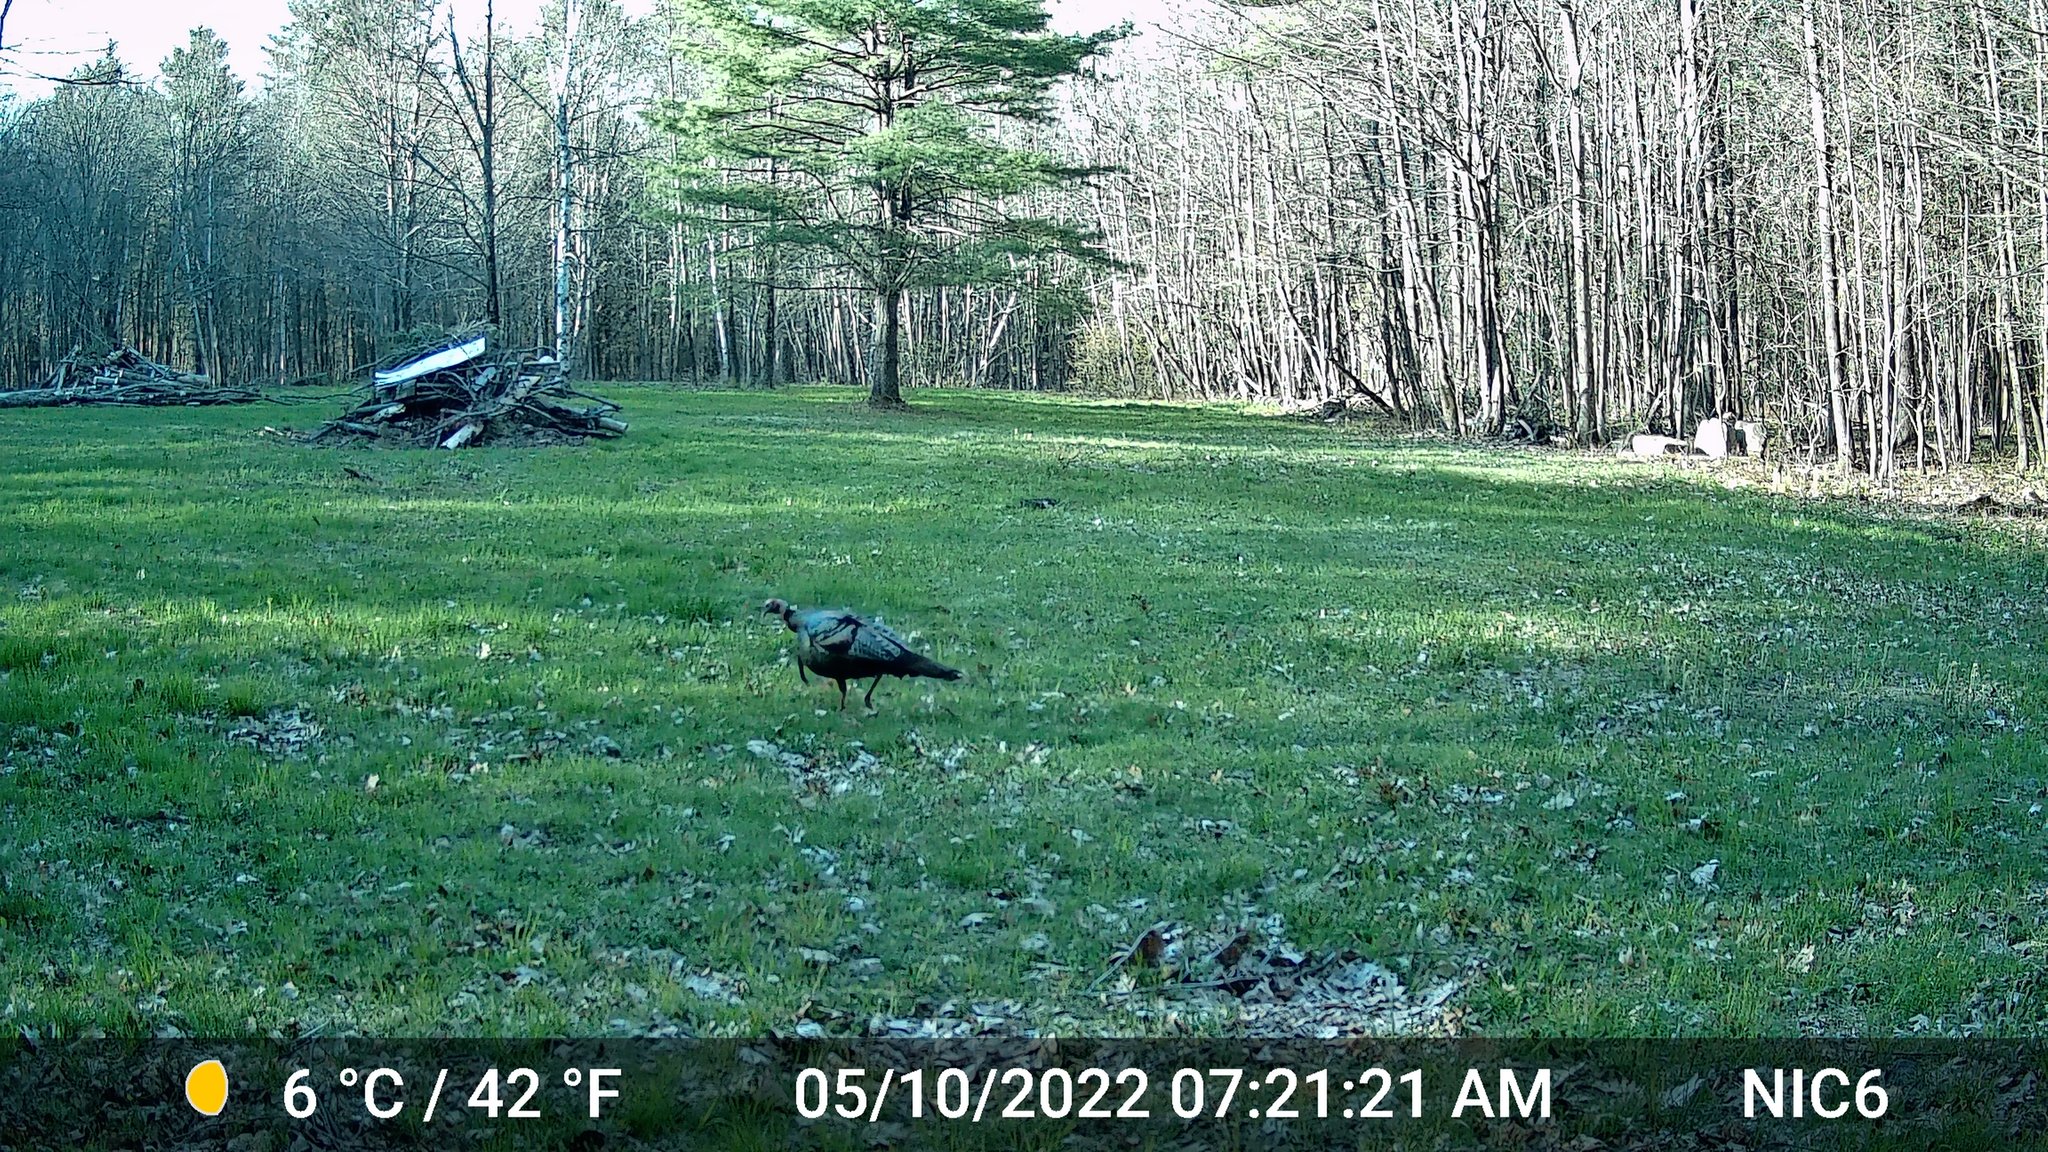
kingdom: Animalia
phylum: Chordata
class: Aves
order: Galliformes
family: Phasianidae
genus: Meleagris
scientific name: Meleagris gallopavo
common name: Wild turkey
